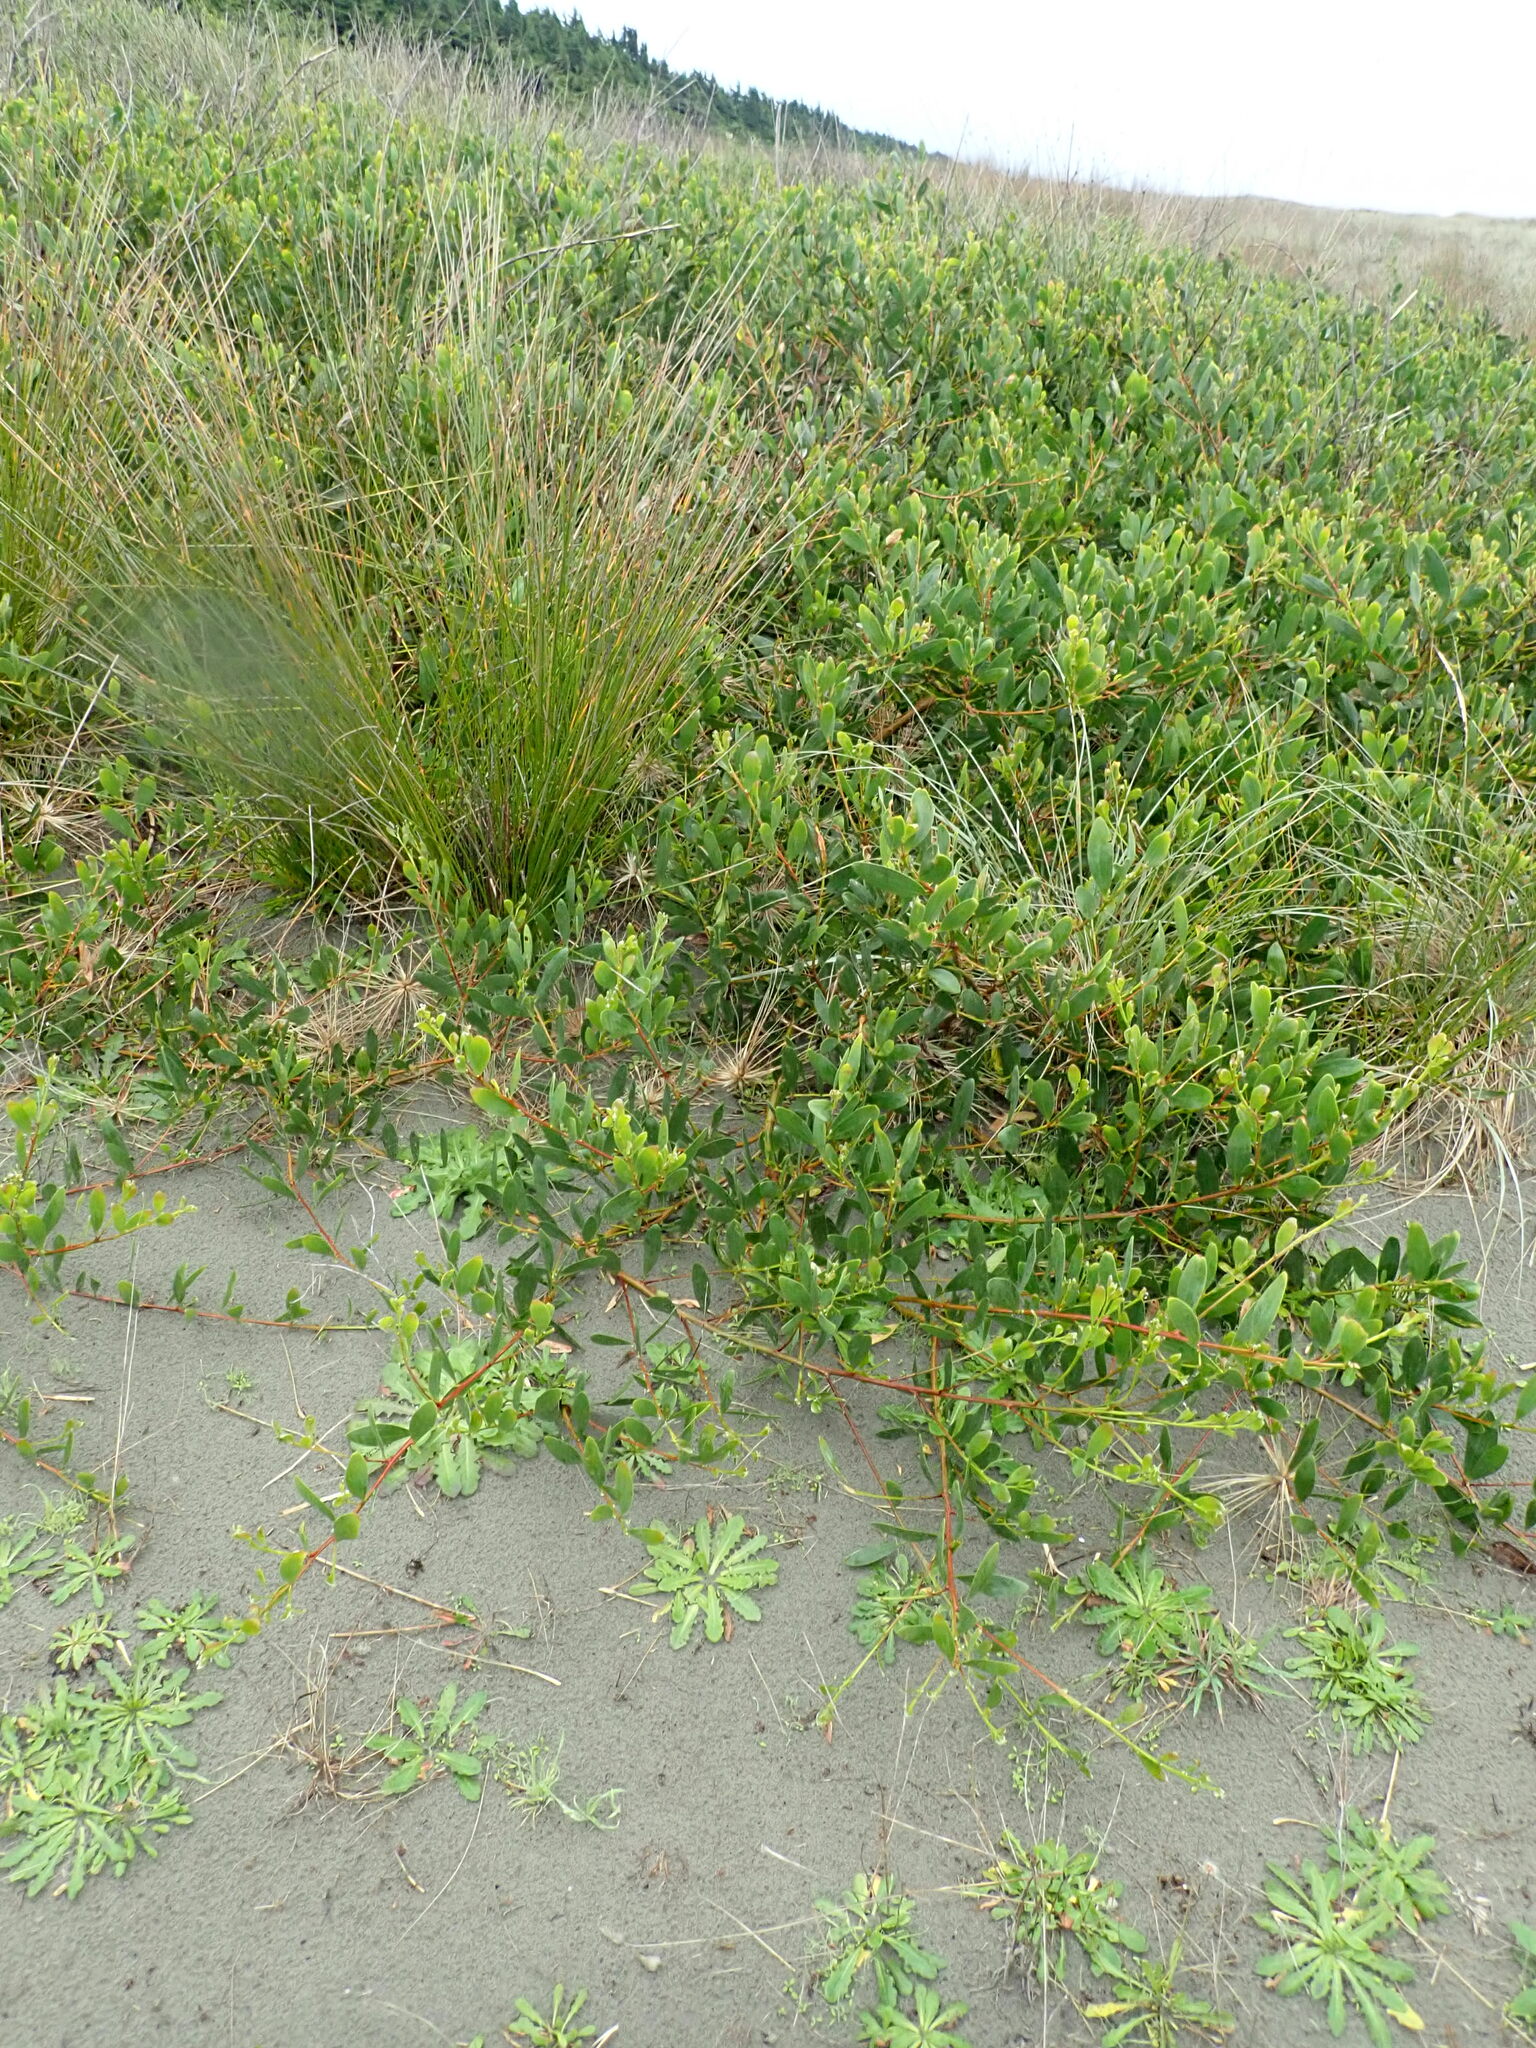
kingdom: Plantae
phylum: Tracheophyta
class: Magnoliopsida
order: Fabales
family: Fabaceae
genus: Acacia
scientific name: Acacia longifolia
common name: Sydney golden wattle
